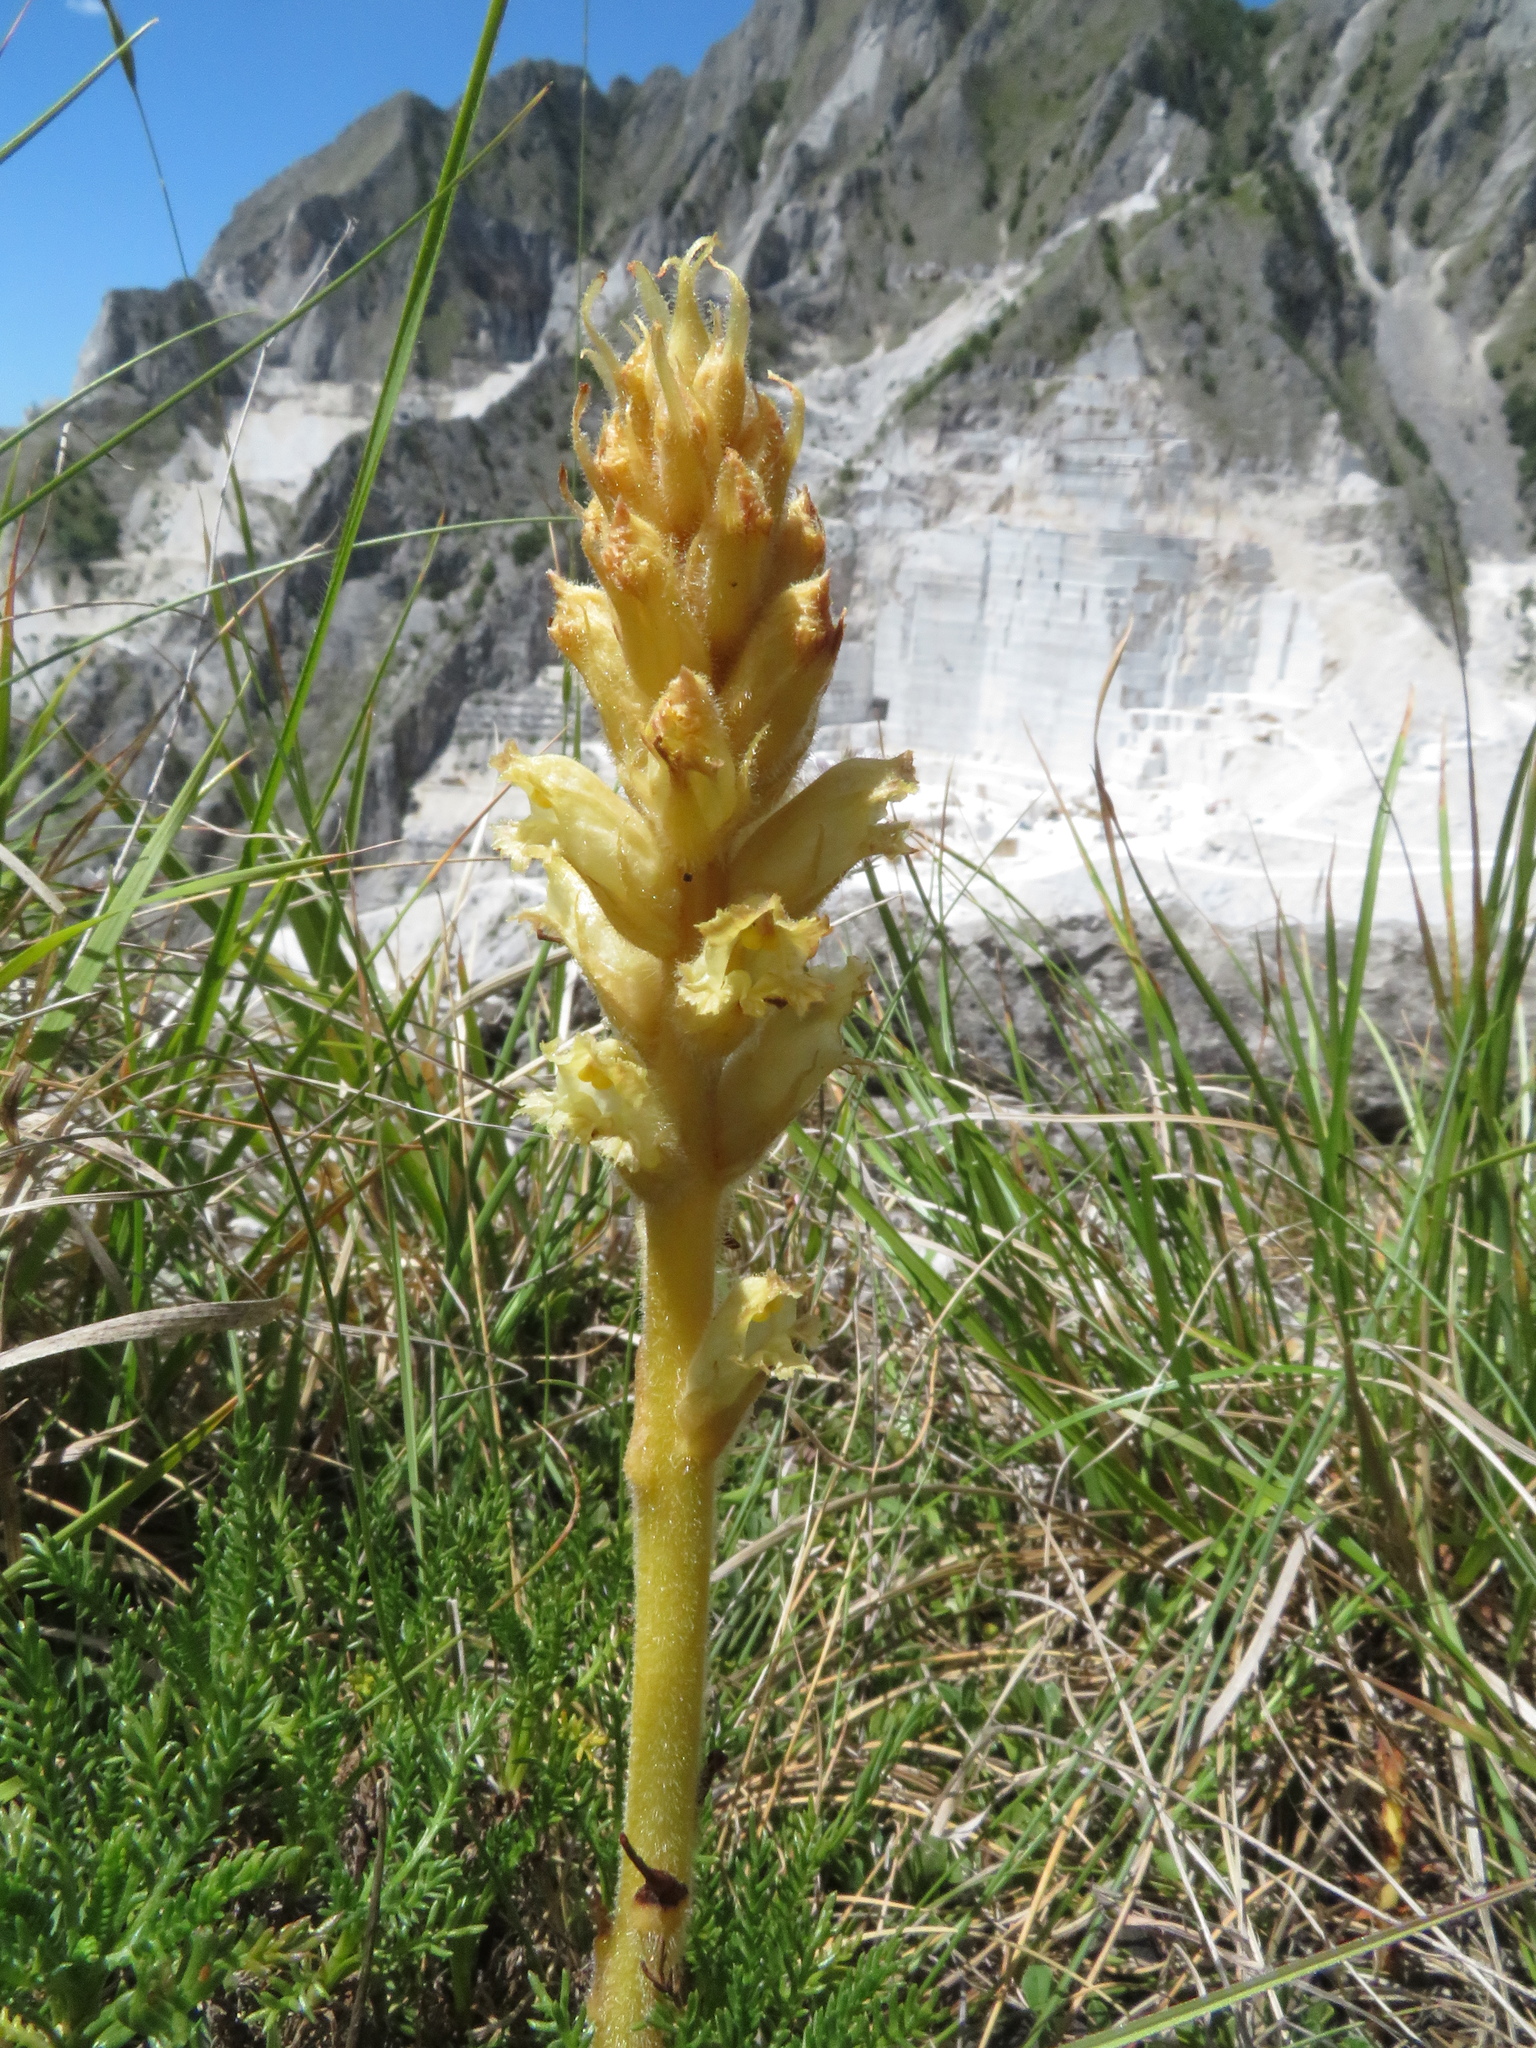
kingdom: Plantae
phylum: Tracheophyta
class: Magnoliopsida
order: Lamiales
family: Orobanchaceae
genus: Orobanche
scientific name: Orobanche apuana
